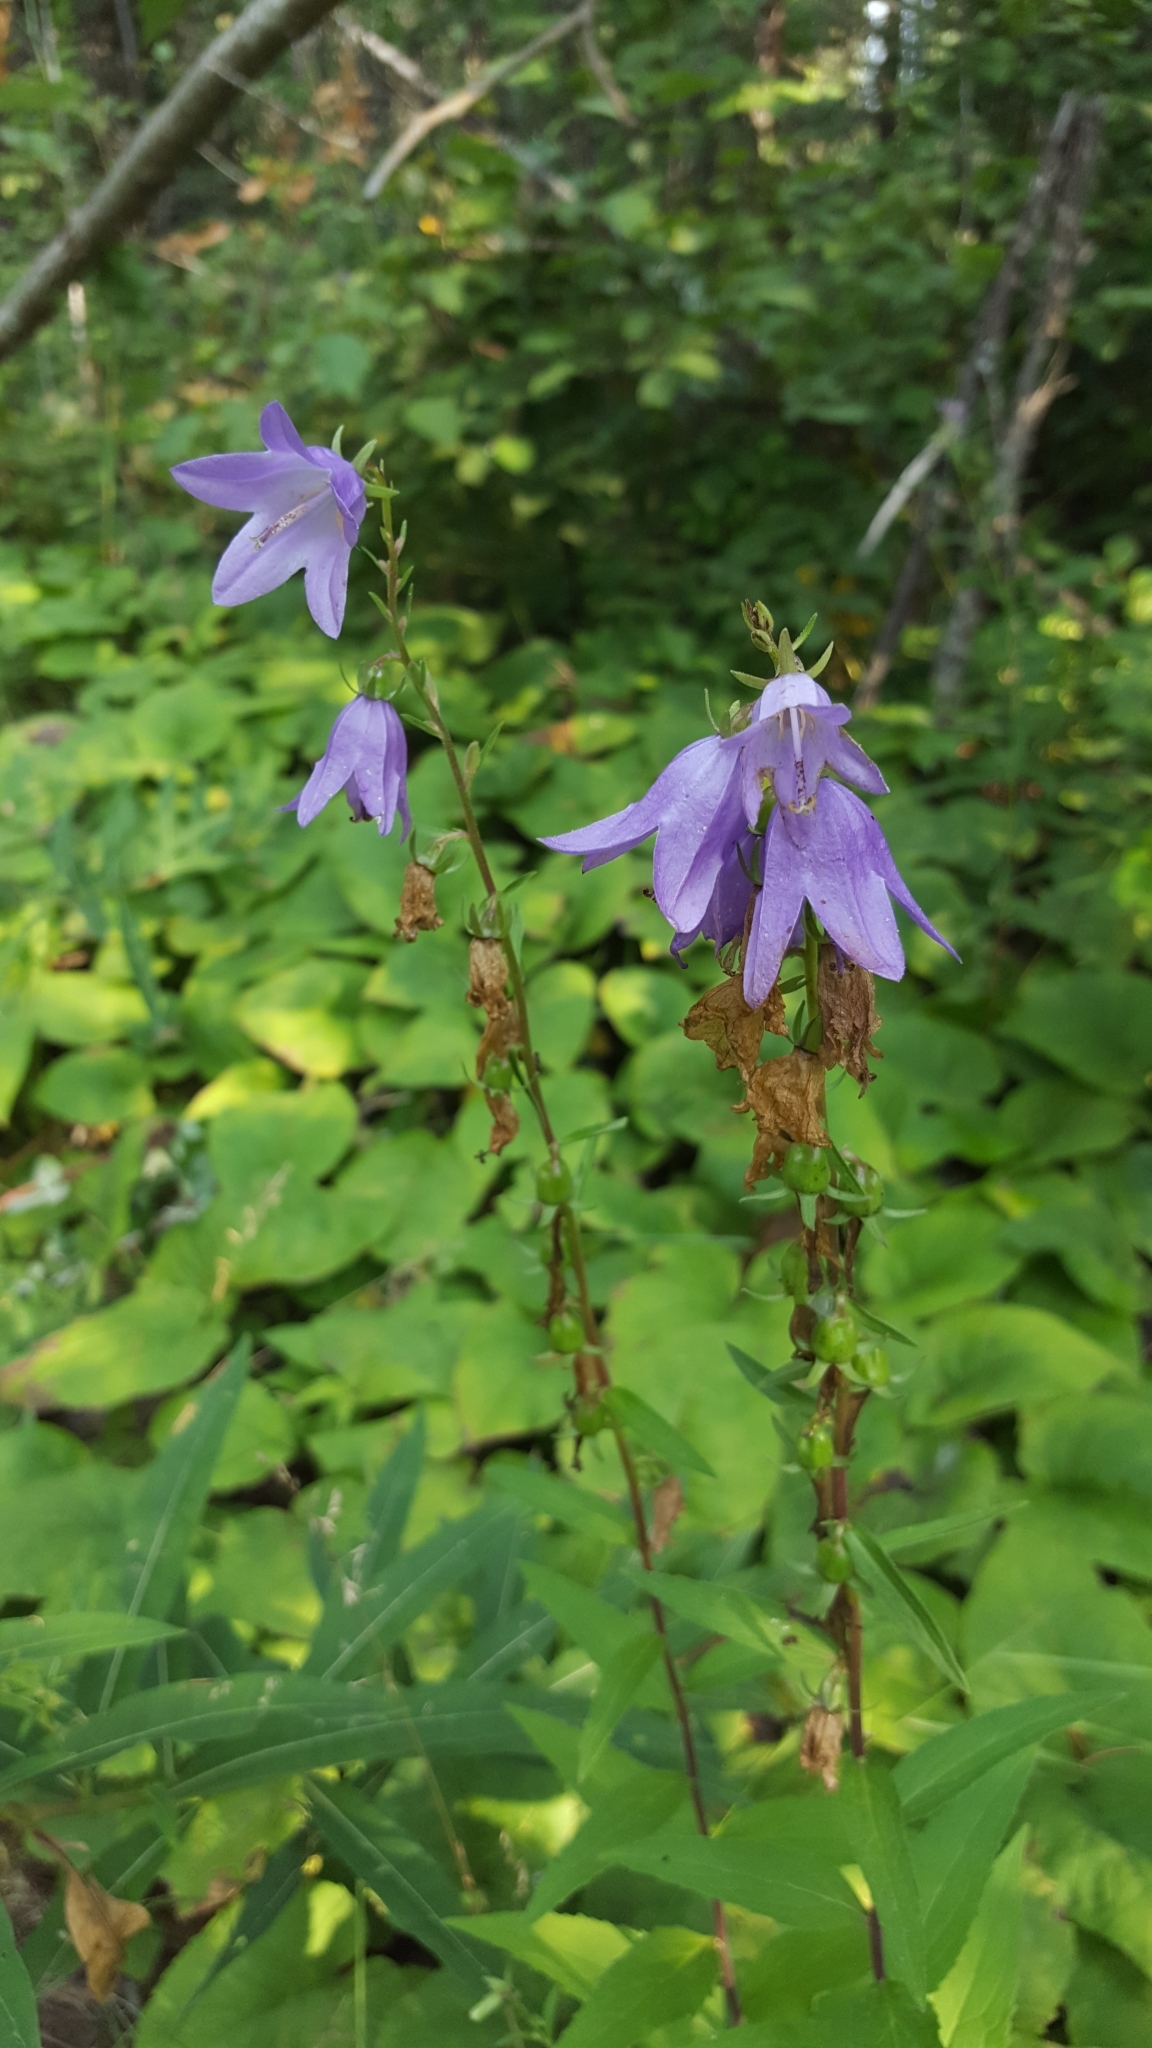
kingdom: Plantae
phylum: Tracheophyta
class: Magnoliopsida
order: Asterales
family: Campanulaceae
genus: Campanula
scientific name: Campanula rapunculoides
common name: Creeping bellflower
